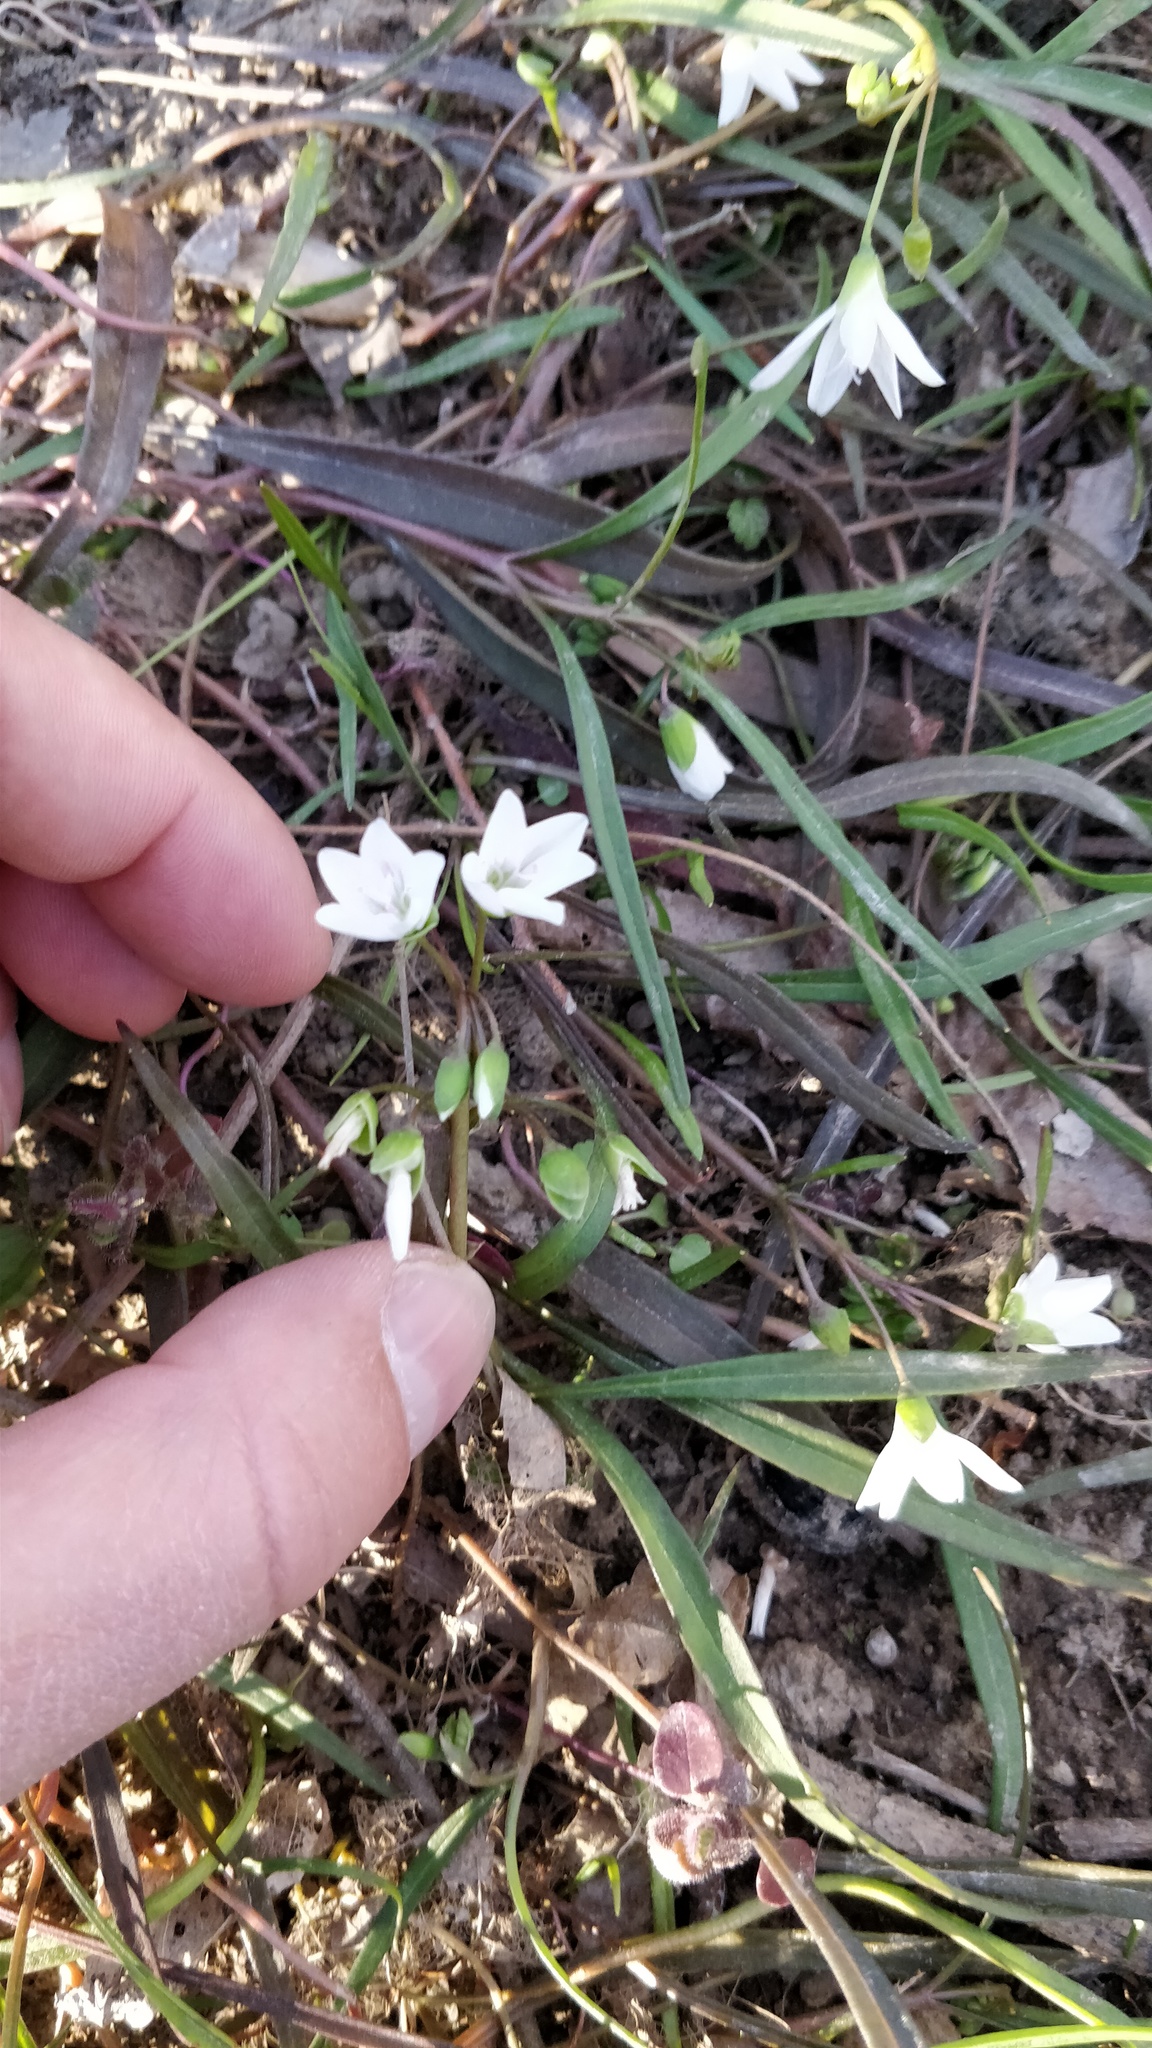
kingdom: Plantae
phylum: Tracheophyta
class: Magnoliopsida
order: Caryophyllales
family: Montiaceae
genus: Claytonia
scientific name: Claytonia virginica
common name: Virginia springbeauty
